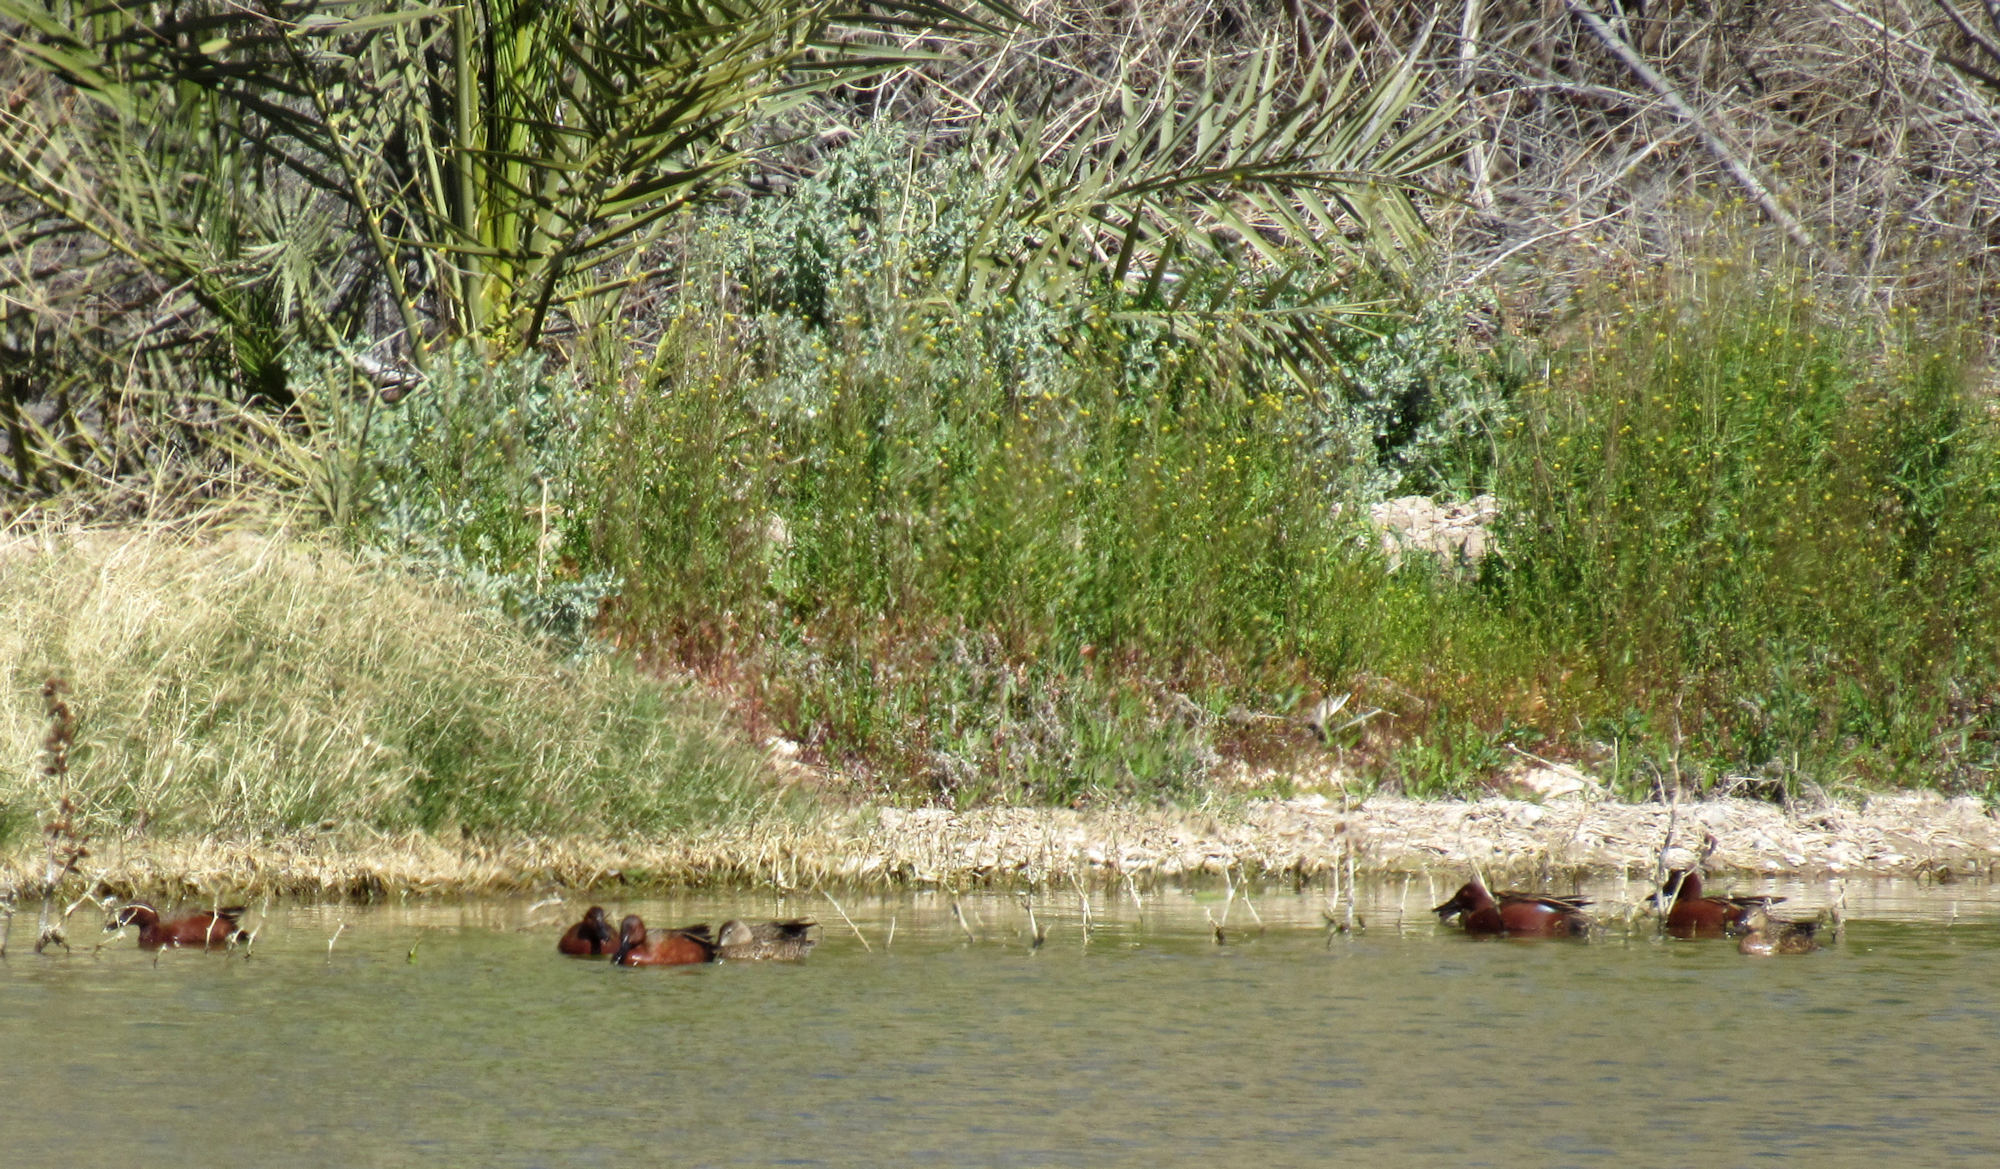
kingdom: Animalia
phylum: Chordata
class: Aves
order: Anseriformes
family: Anatidae
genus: Spatula
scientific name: Spatula cyanoptera
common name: Cinnamon teal
